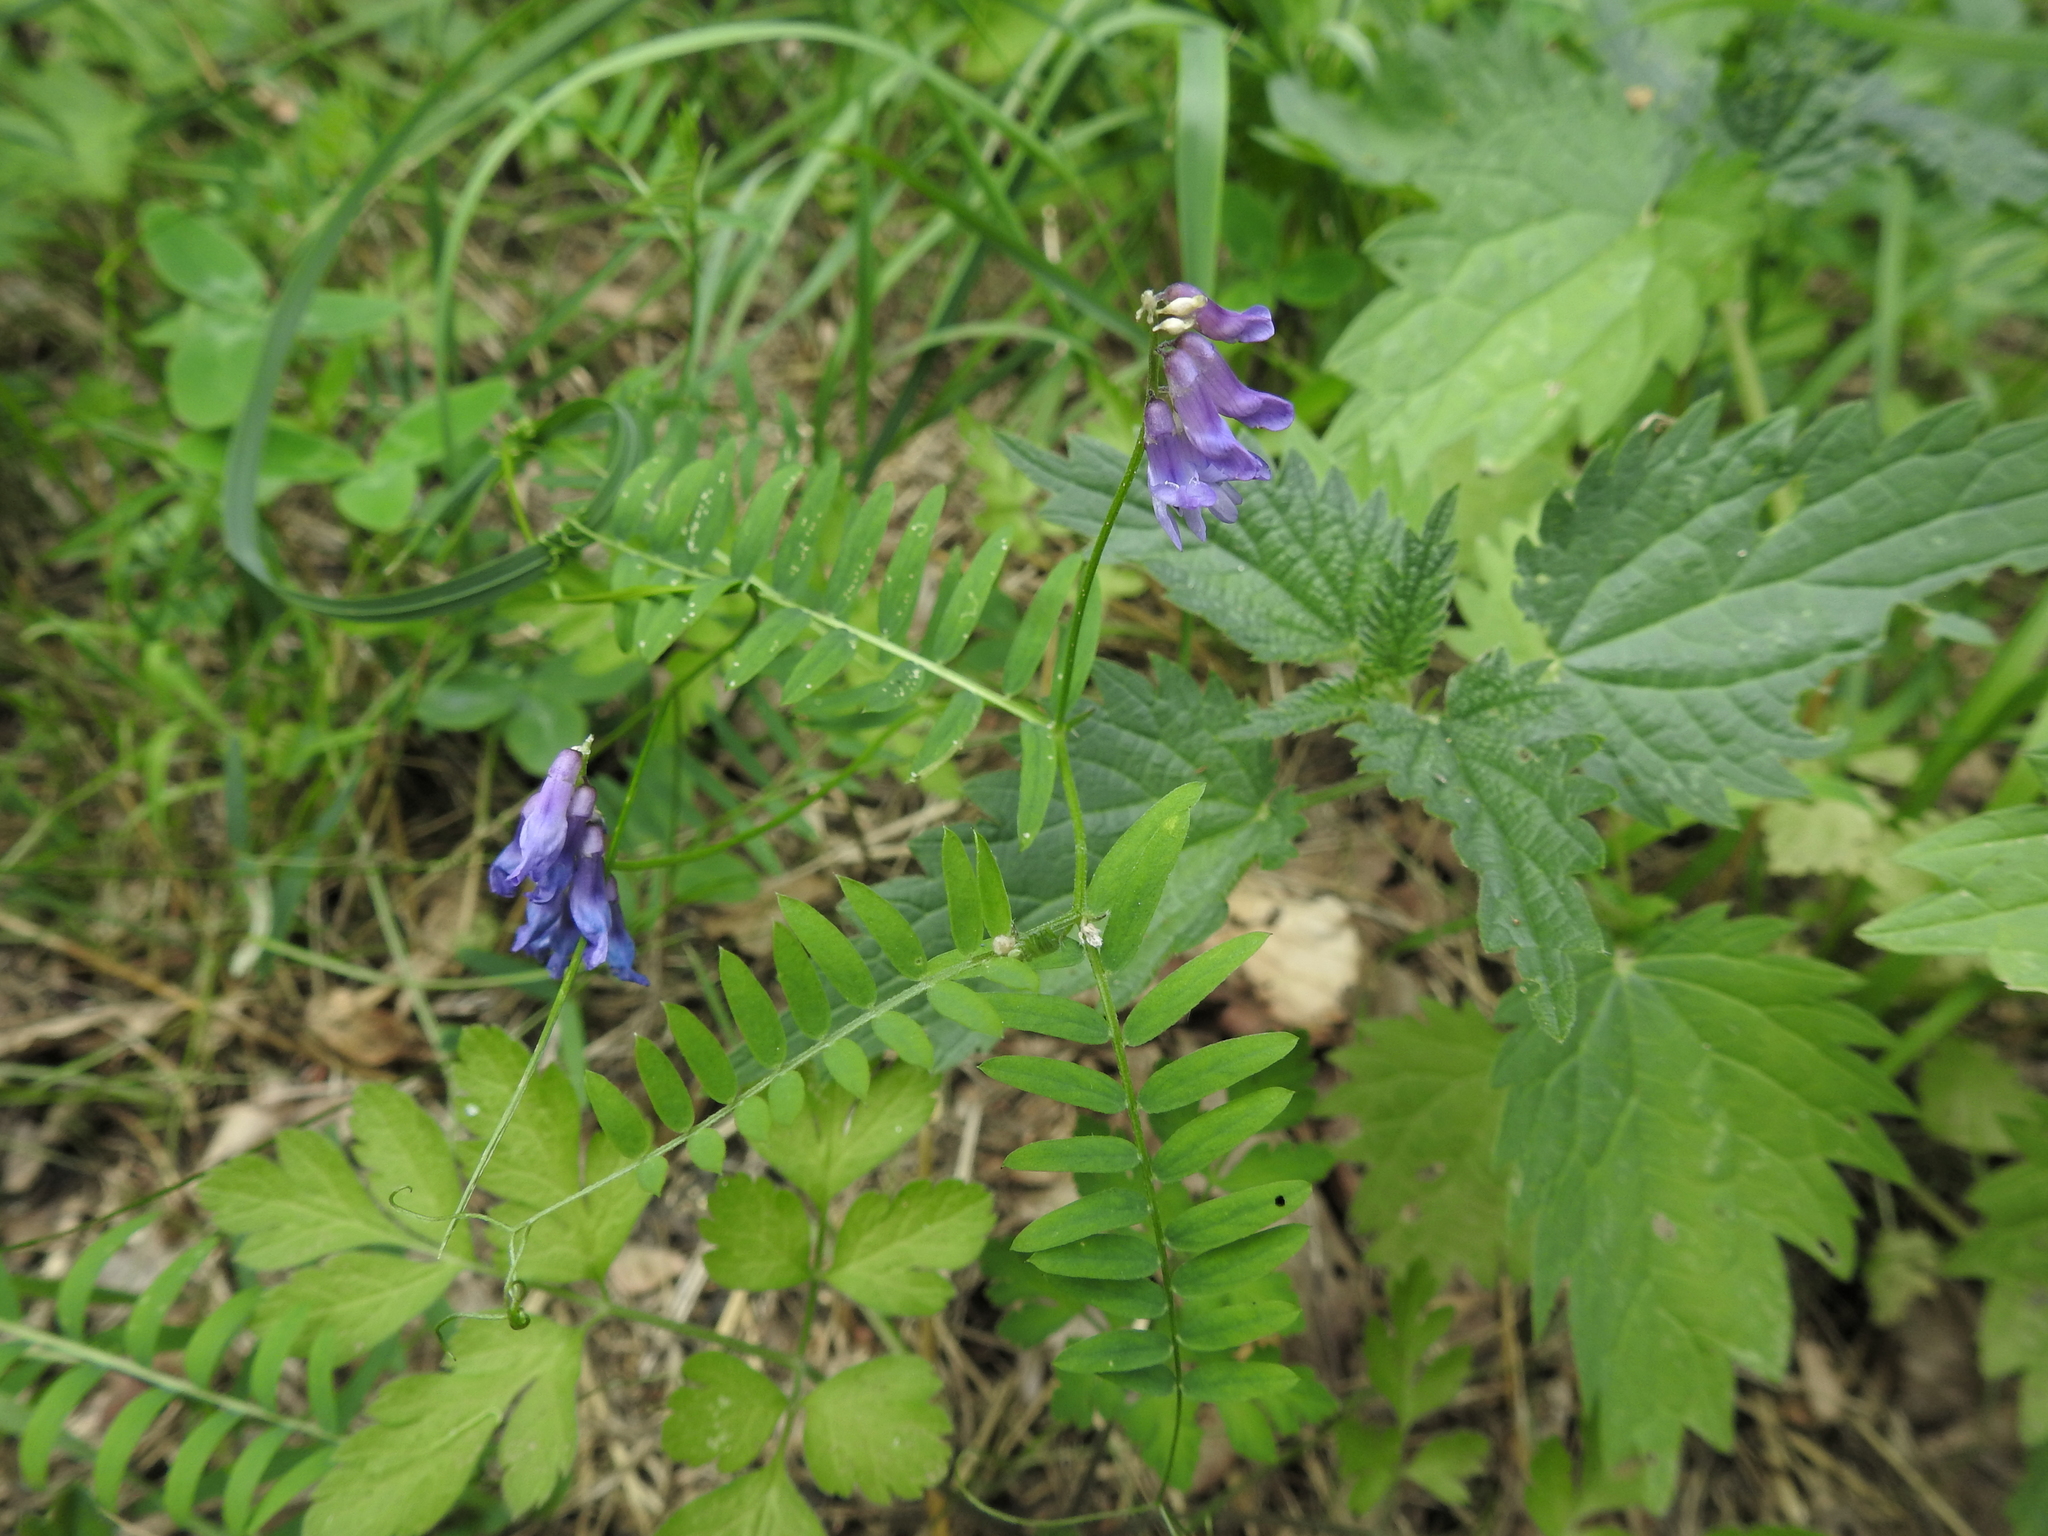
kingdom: Plantae
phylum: Tracheophyta
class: Magnoliopsida
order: Fabales
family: Fabaceae
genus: Vicia
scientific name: Vicia cracca
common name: Bird vetch
